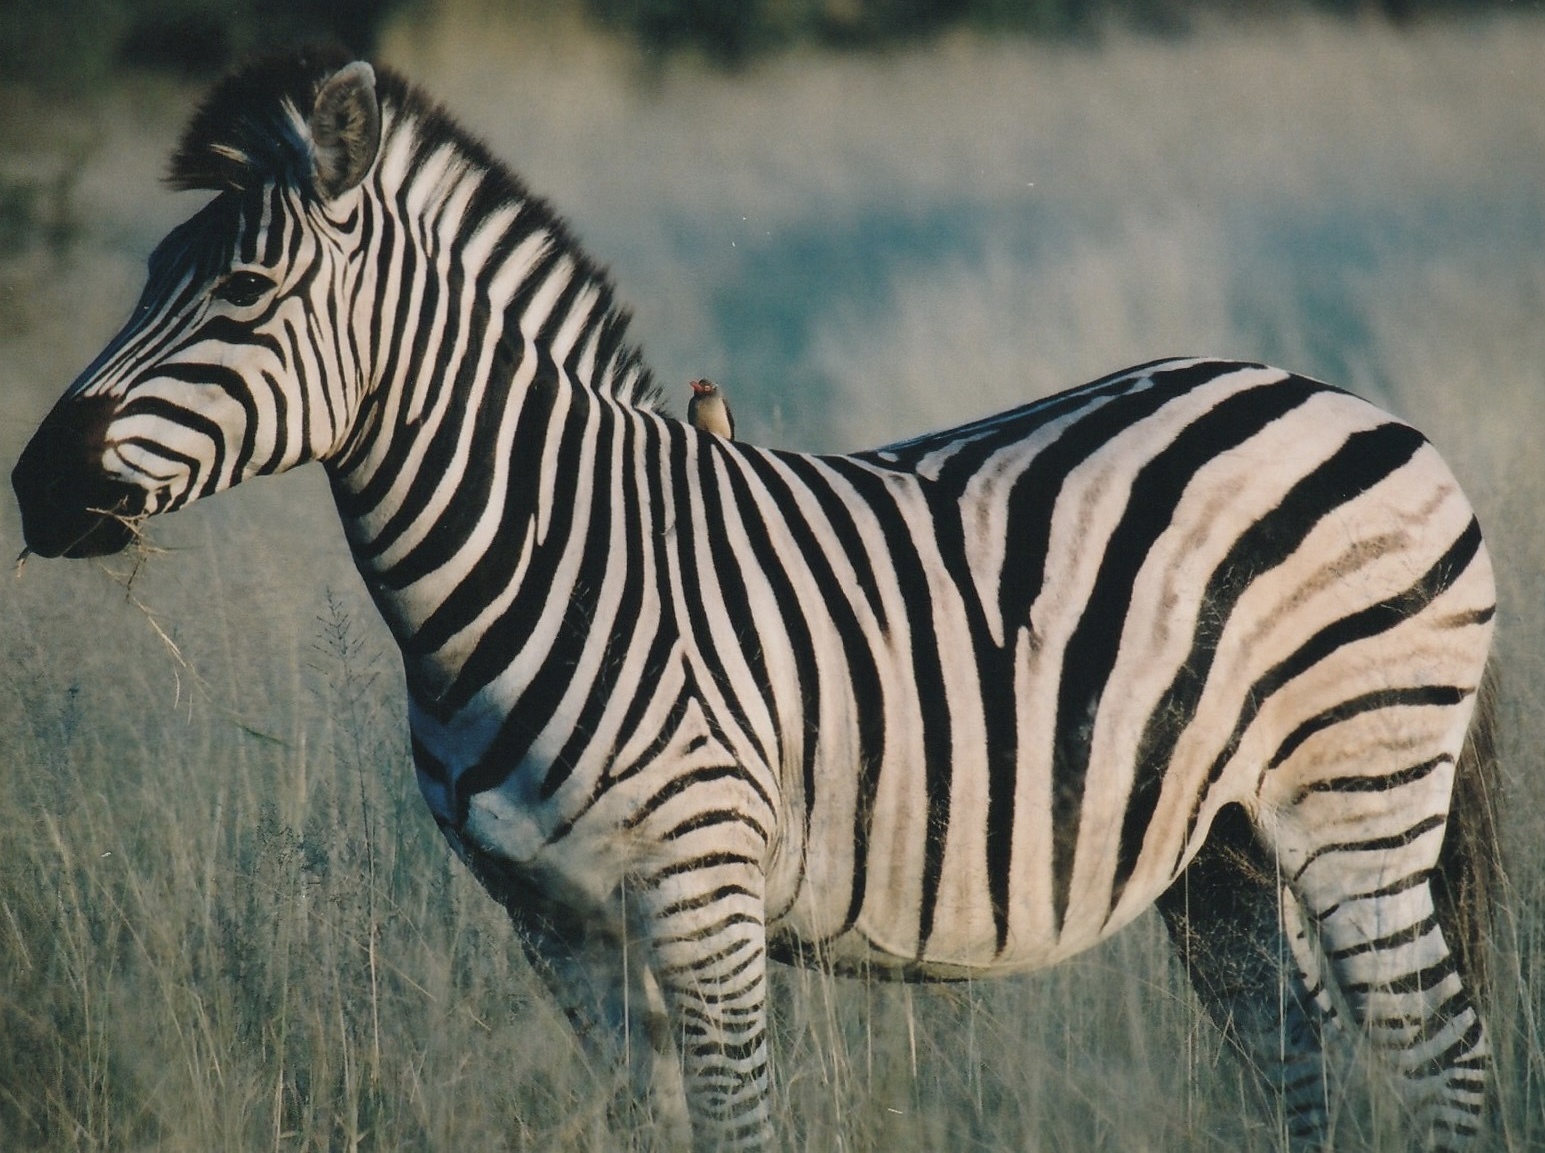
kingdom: Animalia
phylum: Chordata
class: Mammalia
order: Perissodactyla
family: Equidae
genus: Equus
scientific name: Equus quagga
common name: Plains zebra
